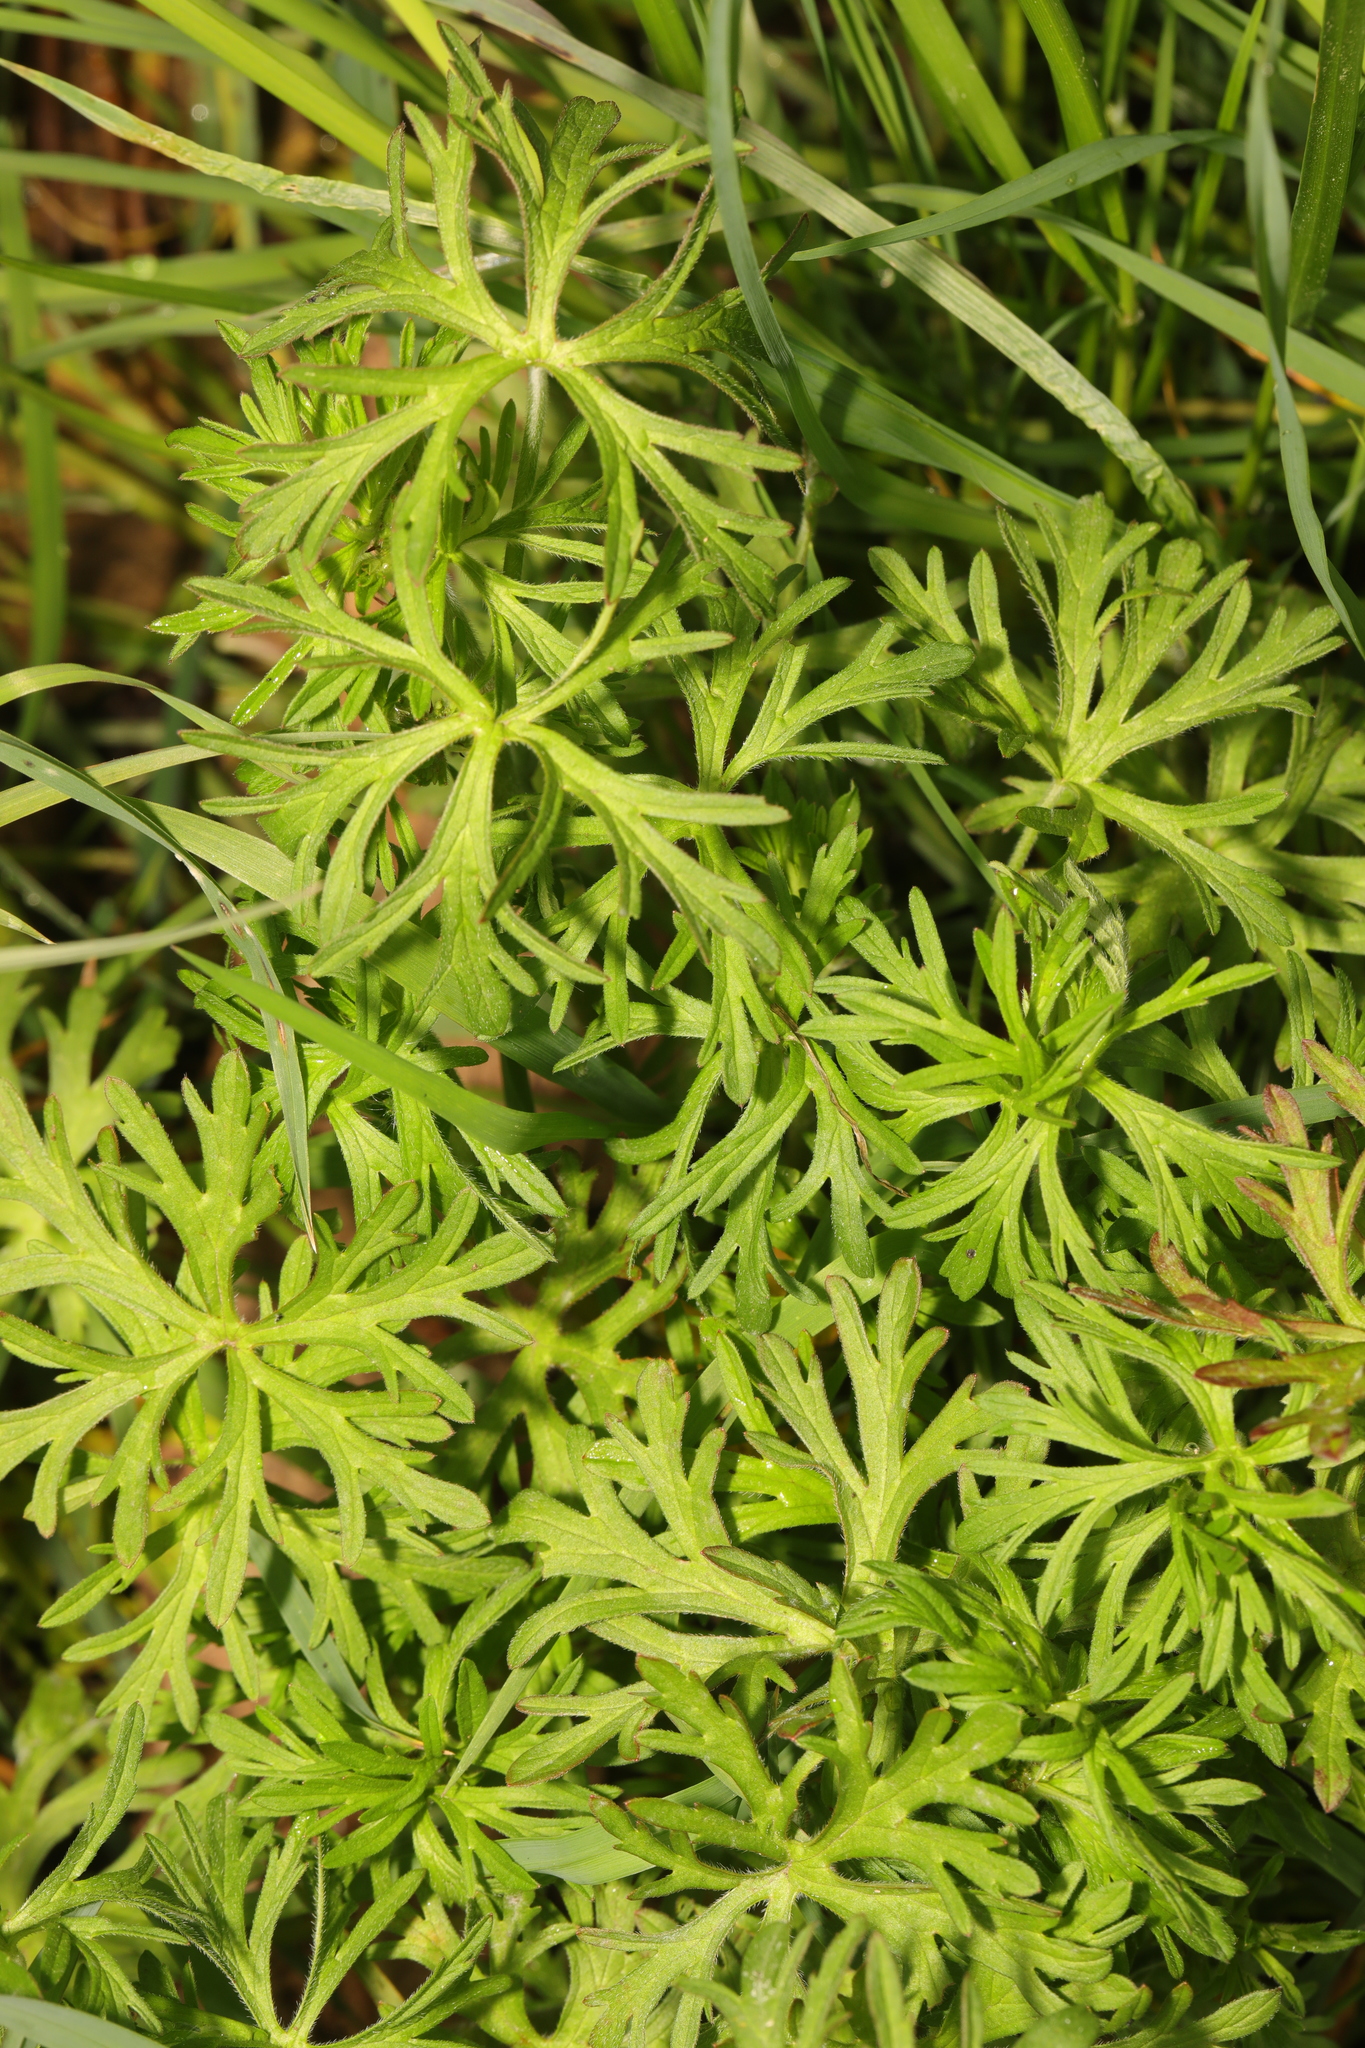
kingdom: Plantae
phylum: Tracheophyta
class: Magnoliopsida
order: Geraniales
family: Geraniaceae
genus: Geranium
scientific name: Geranium dissectum
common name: Cut-leaved crane's-bill
